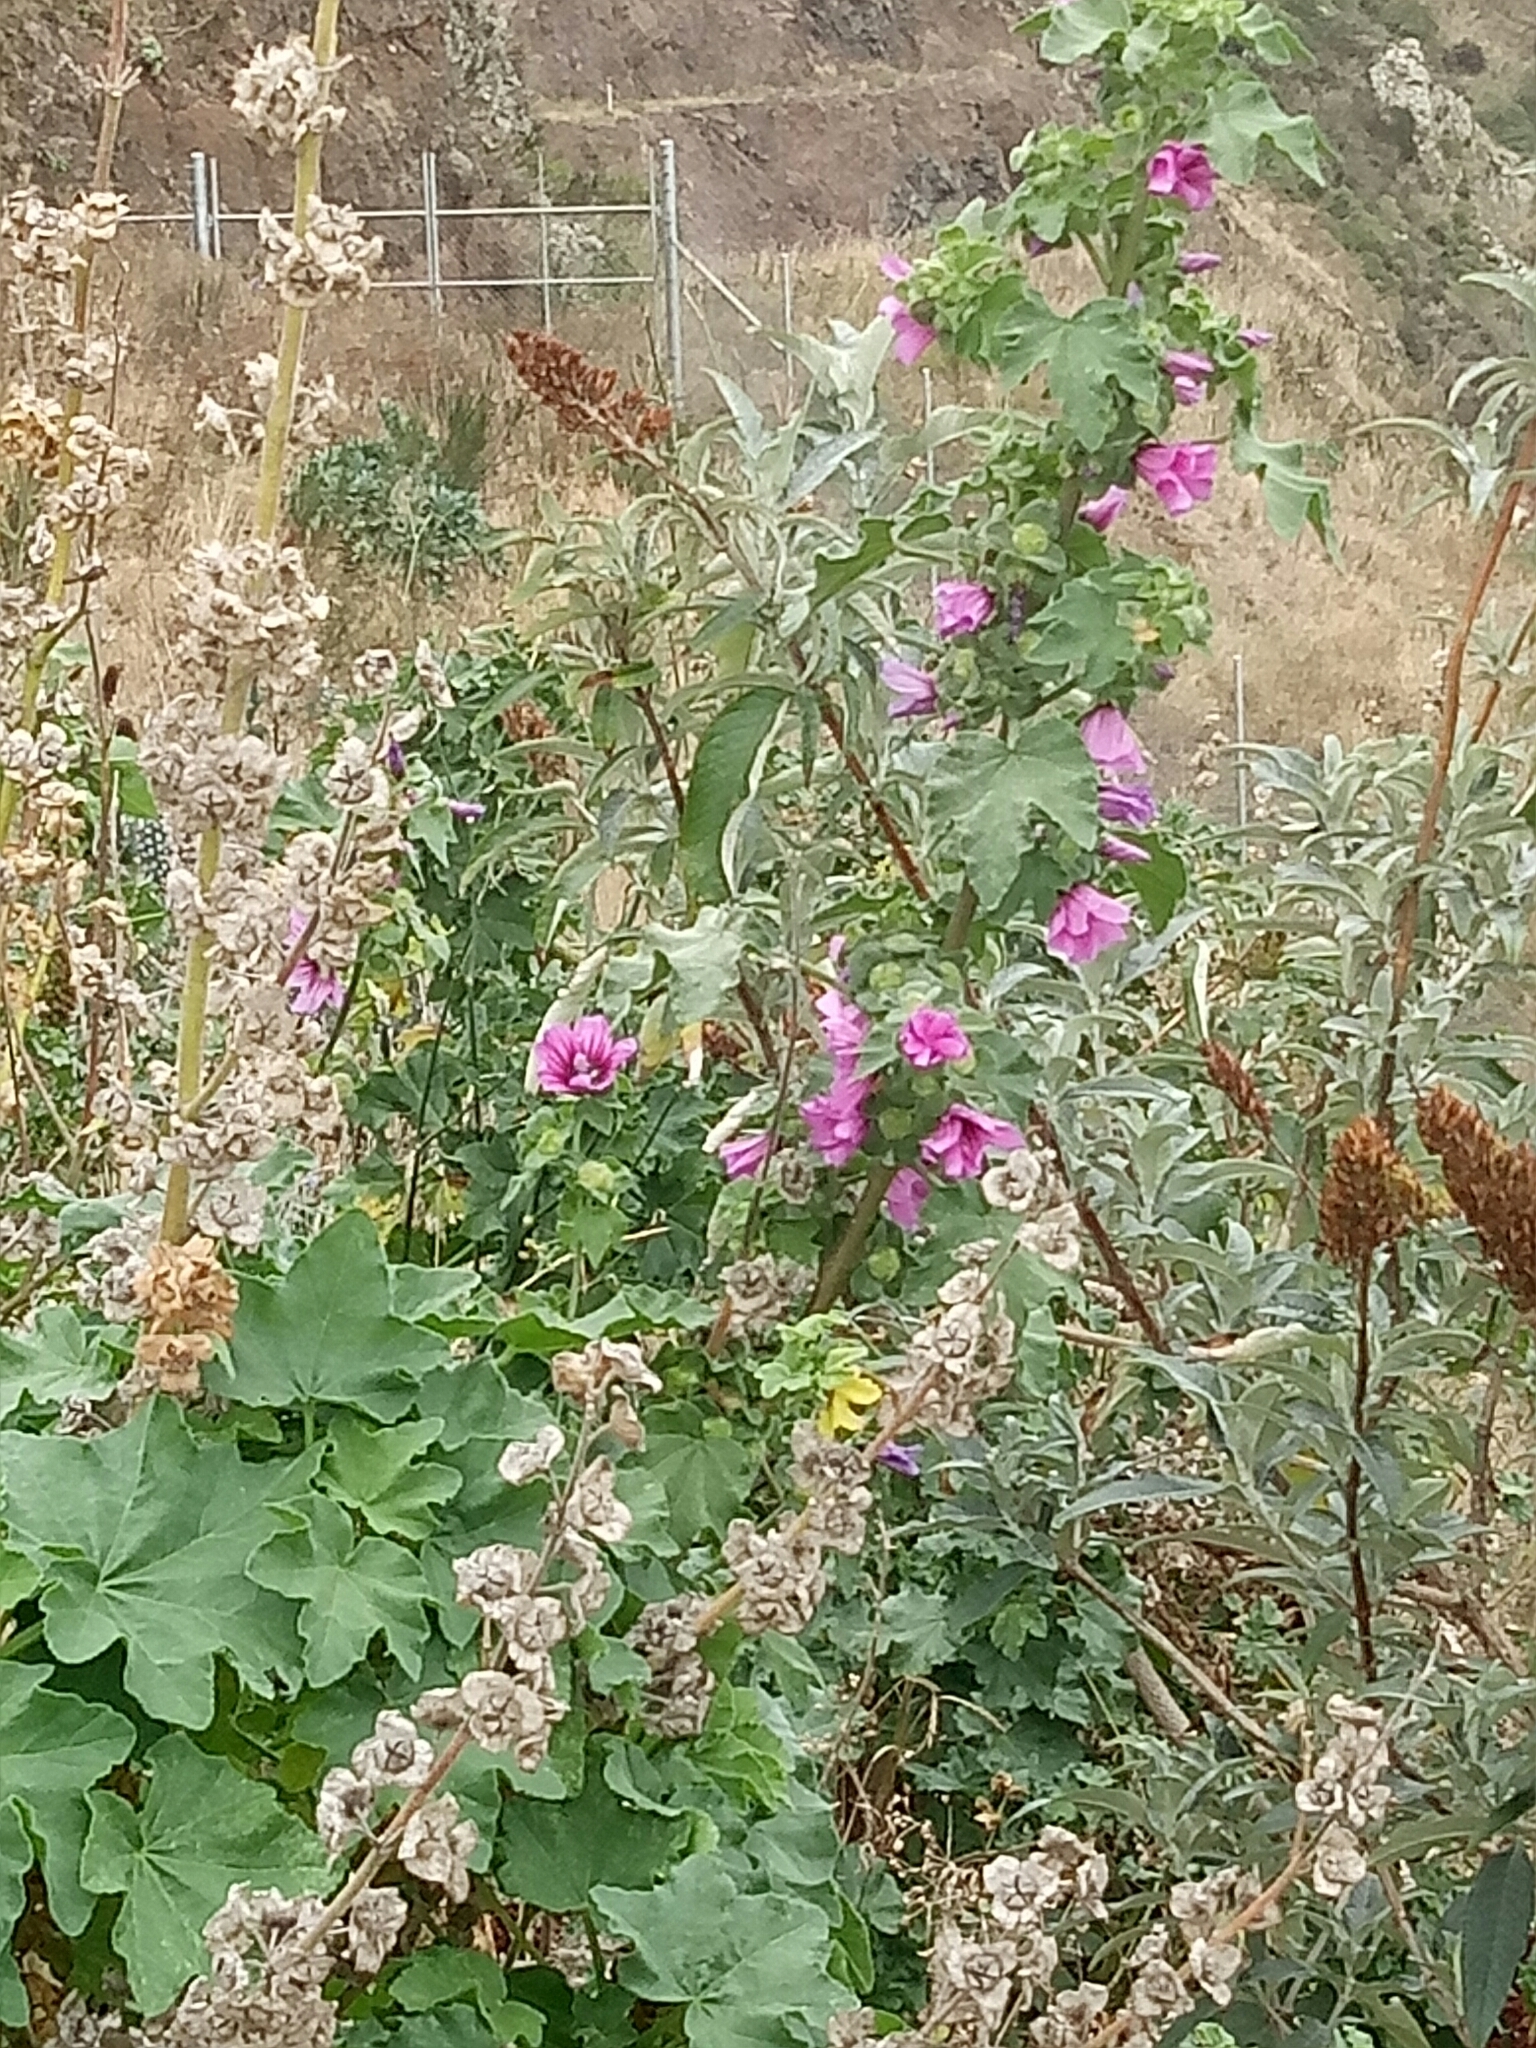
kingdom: Plantae
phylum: Tracheophyta
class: Magnoliopsida
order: Malvales
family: Malvaceae
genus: Malva
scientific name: Malva arborea
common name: Tree mallow
